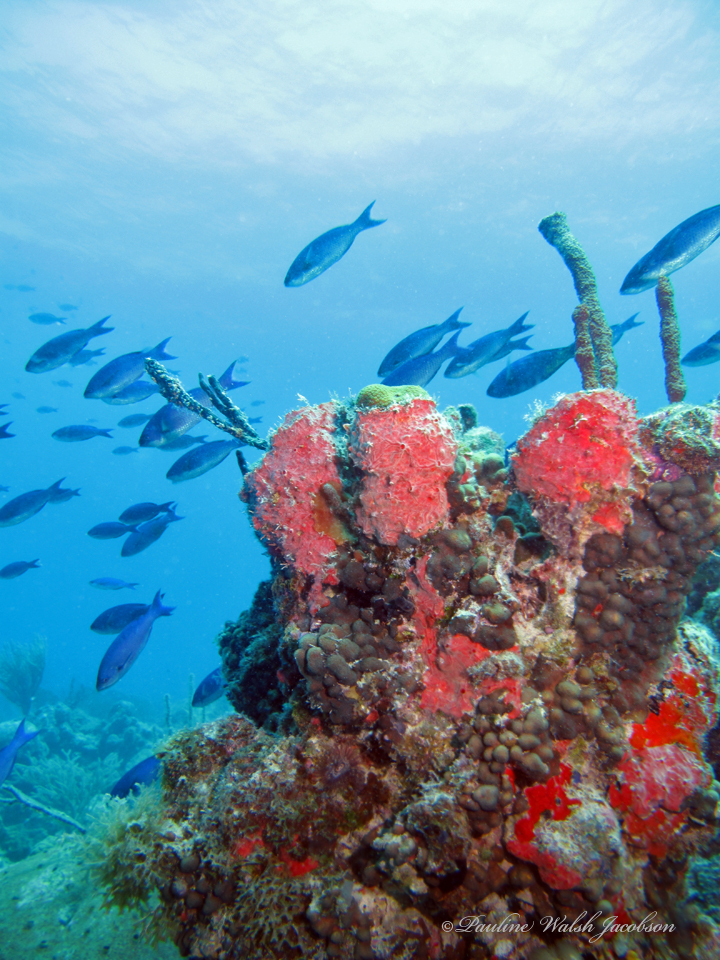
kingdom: Animalia
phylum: Chordata
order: Perciformes
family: Labridae
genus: Bodianus
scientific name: Bodianus
